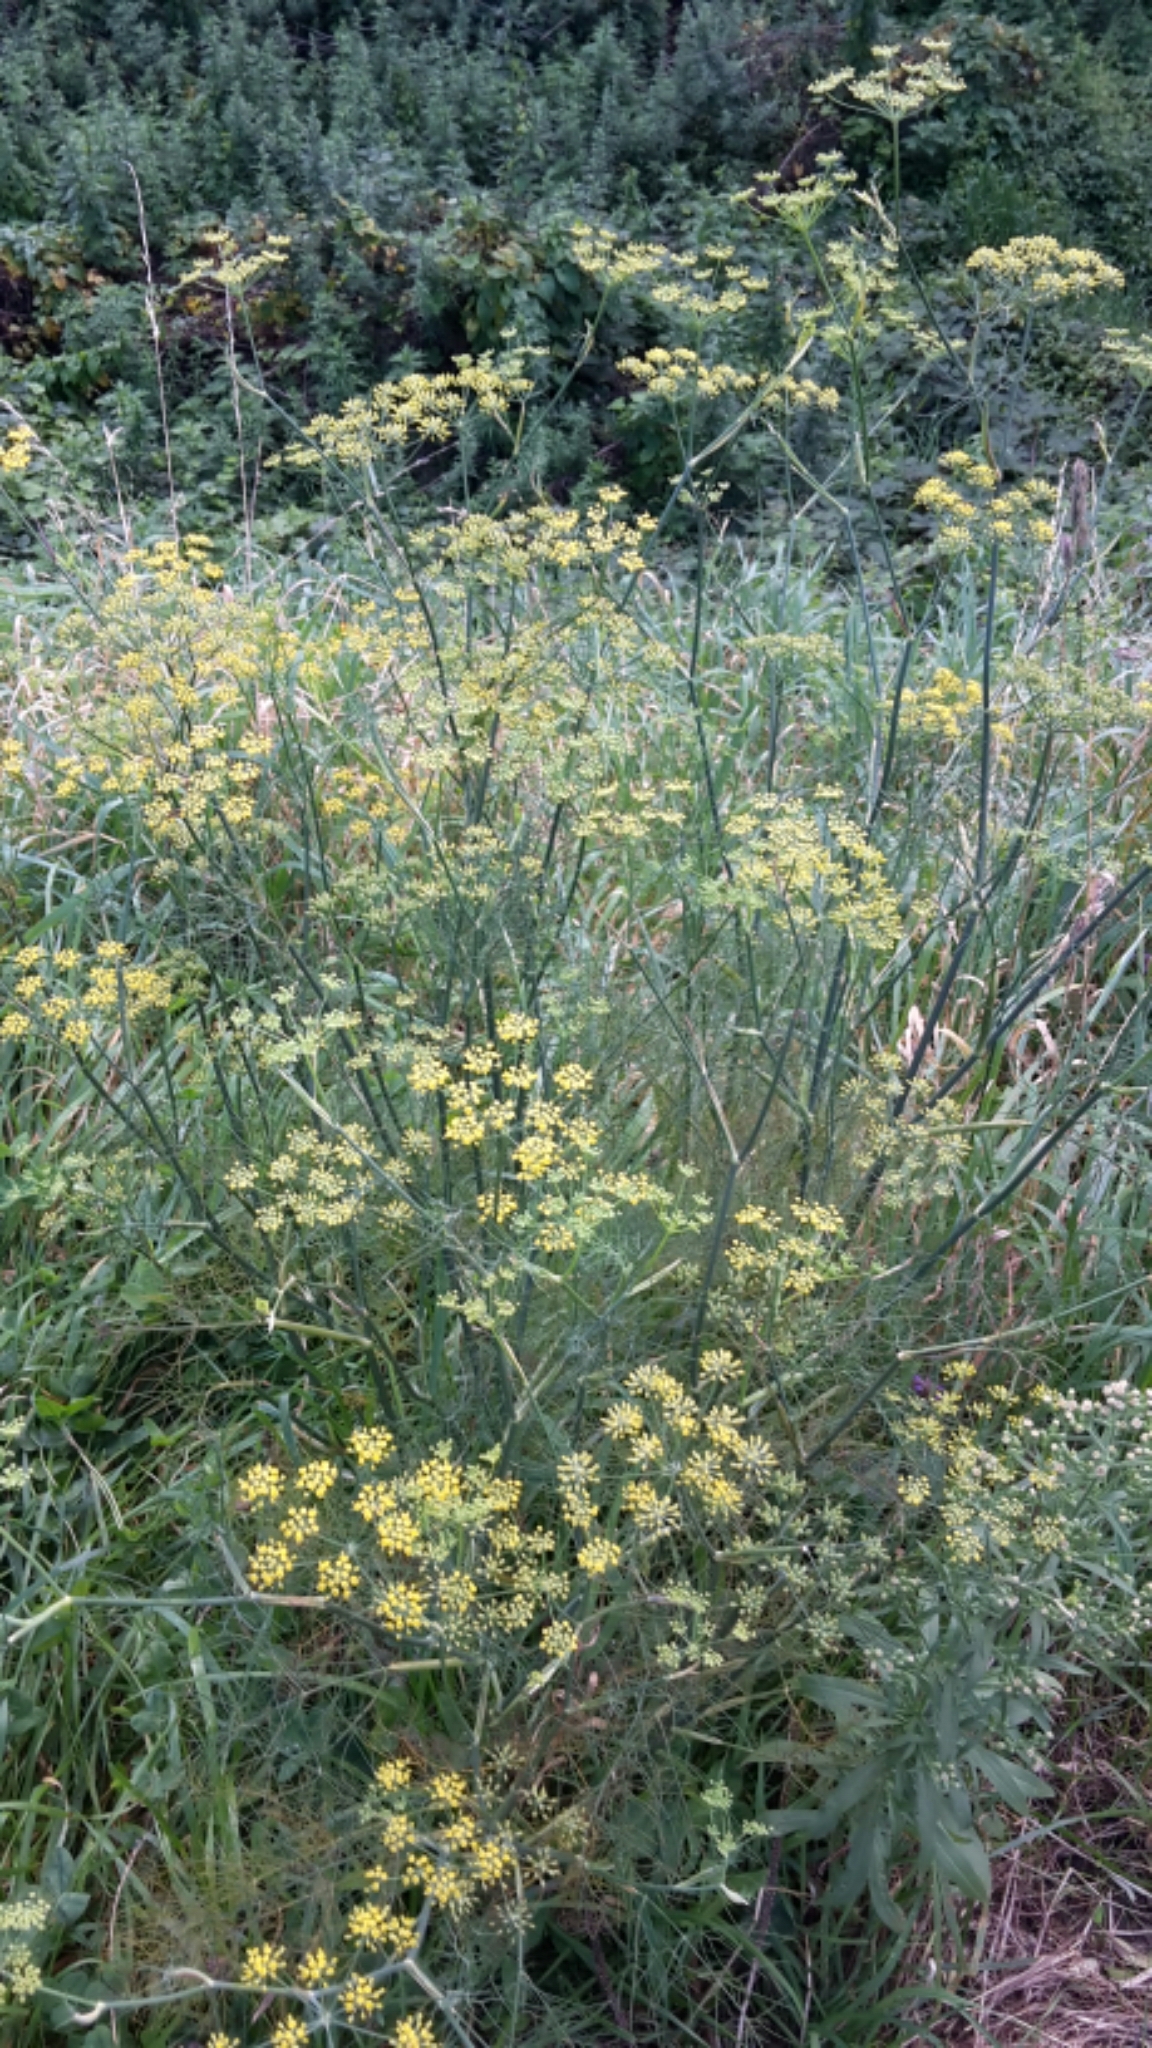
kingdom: Plantae
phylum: Tracheophyta
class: Magnoliopsida
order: Apiales
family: Apiaceae
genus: Foeniculum
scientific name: Foeniculum vulgare
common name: Fennel
